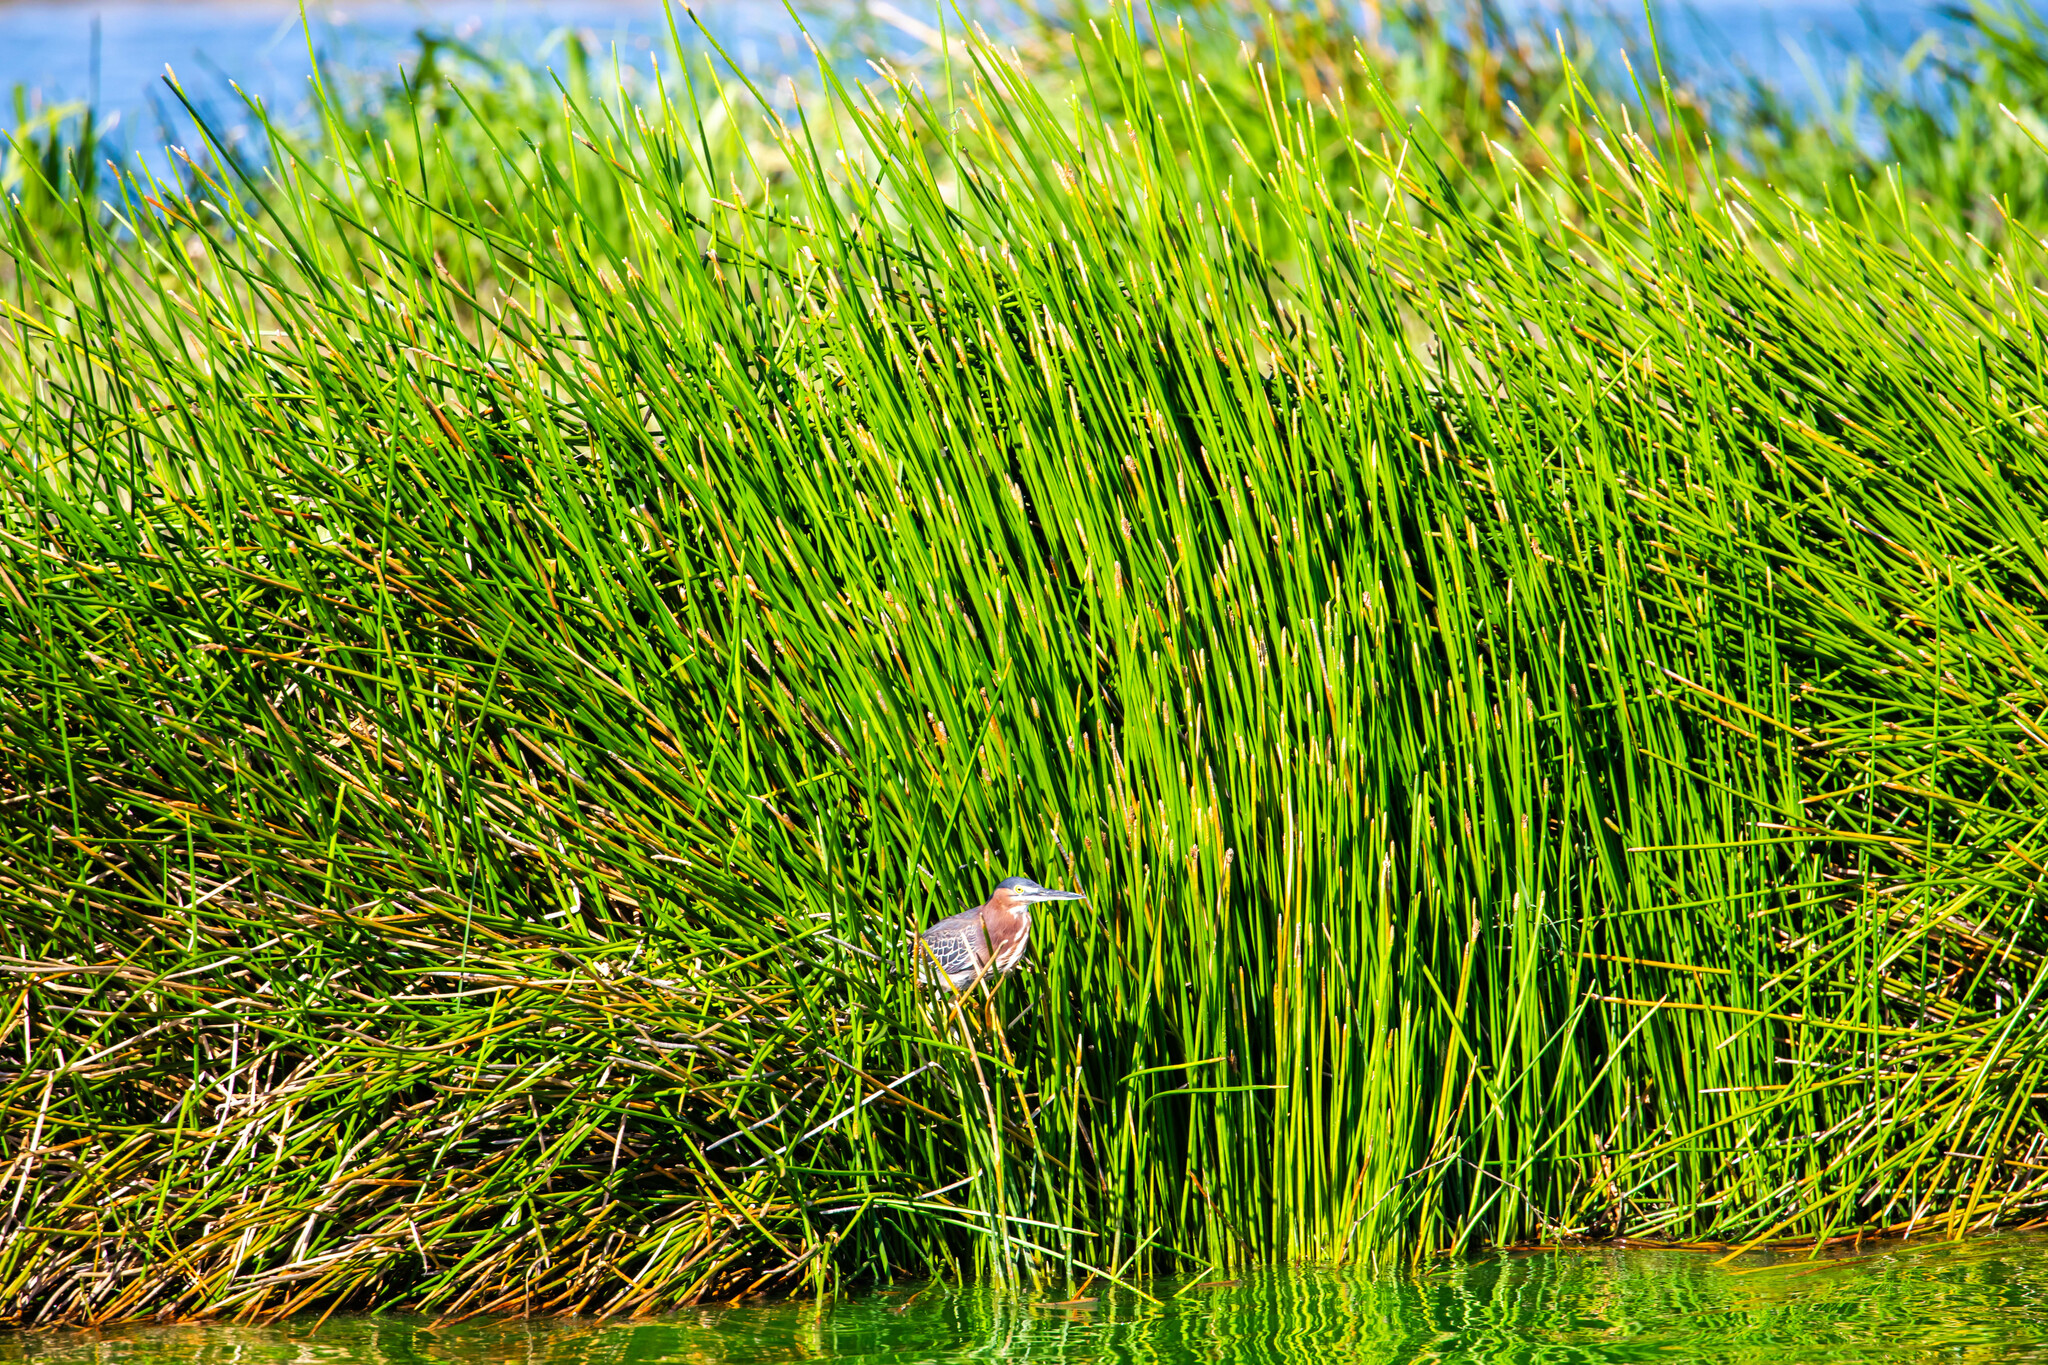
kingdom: Animalia
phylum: Chordata
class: Aves
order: Pelecaniformes
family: Ardeidae
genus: Butorides
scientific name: Butorides virescens
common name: Green heron
